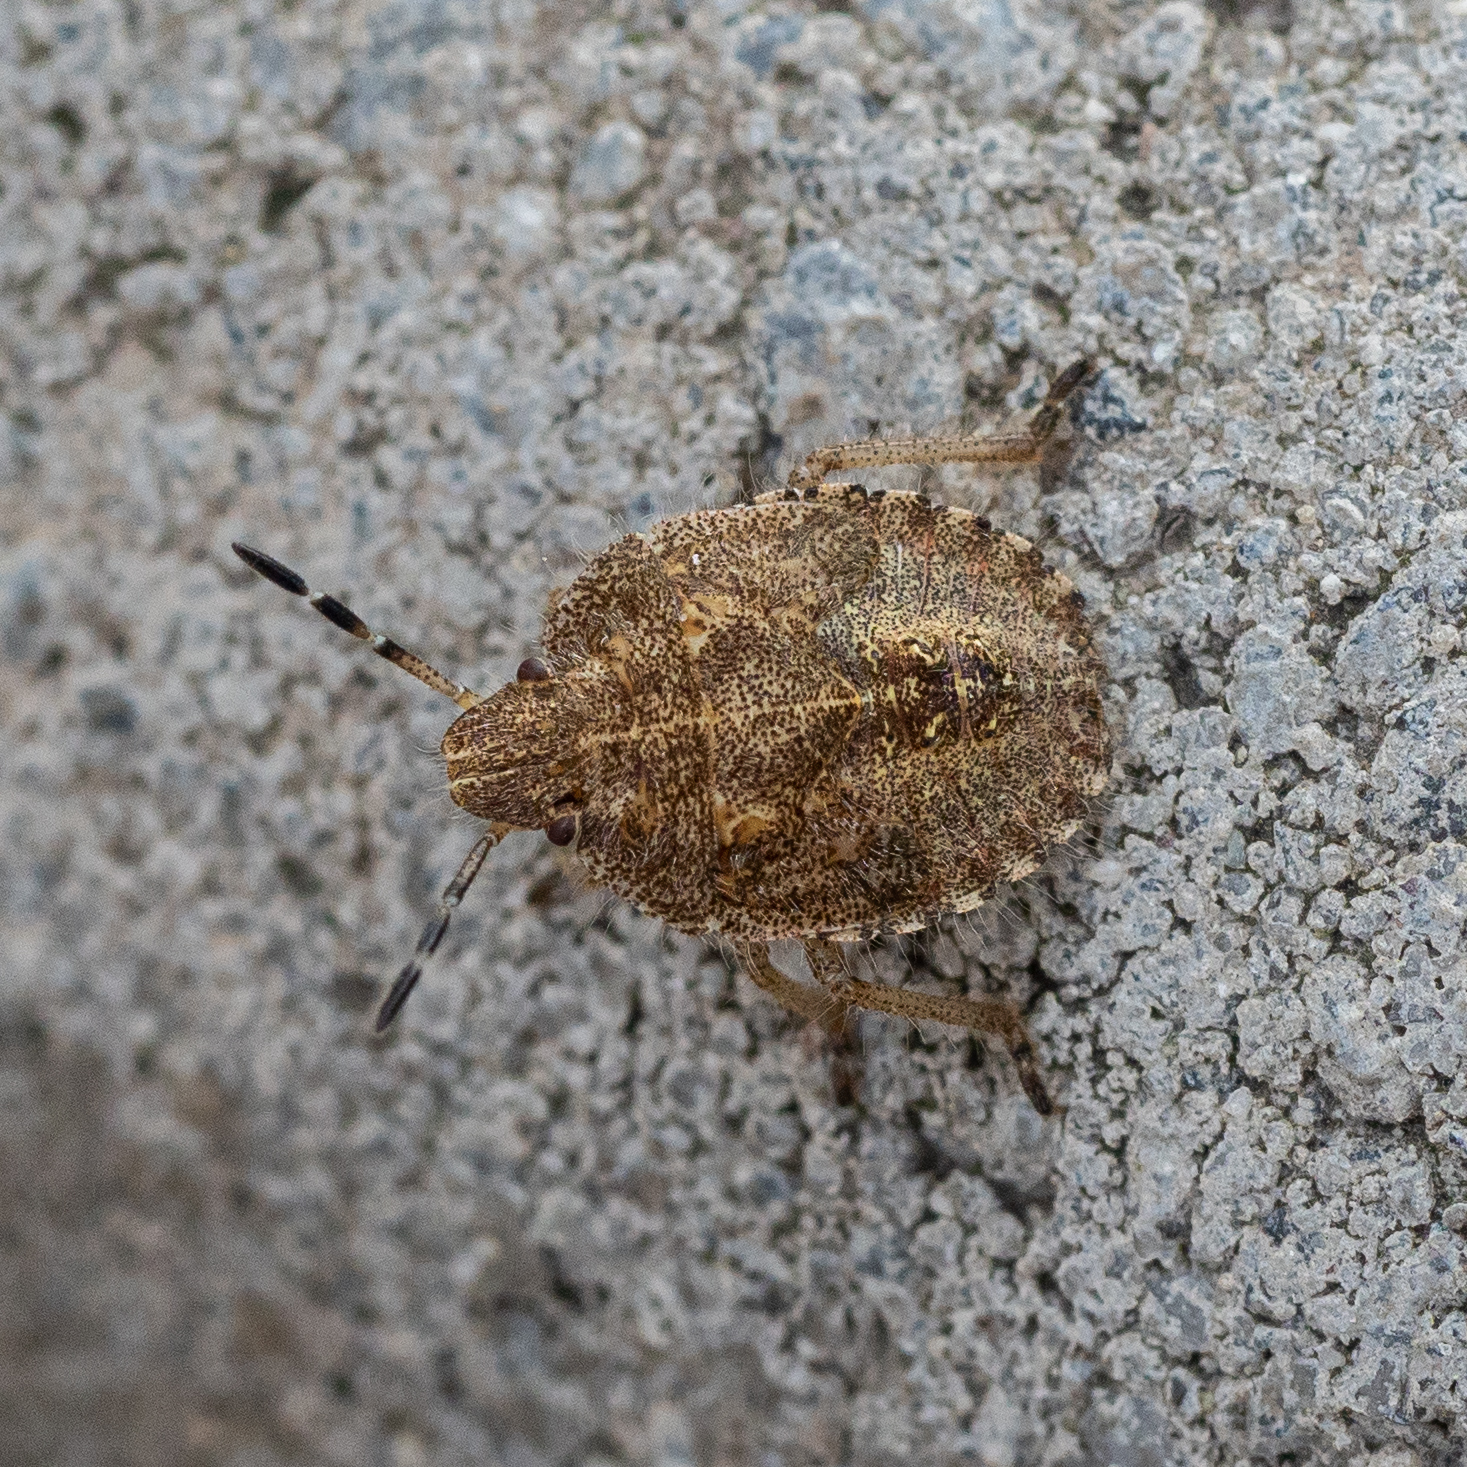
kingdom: Animalia
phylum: Arthropoda
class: Insecta
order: Hemiptera
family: Pentatomidae
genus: Dolycoris
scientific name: Dolycoris baccarum
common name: Sloe bug
